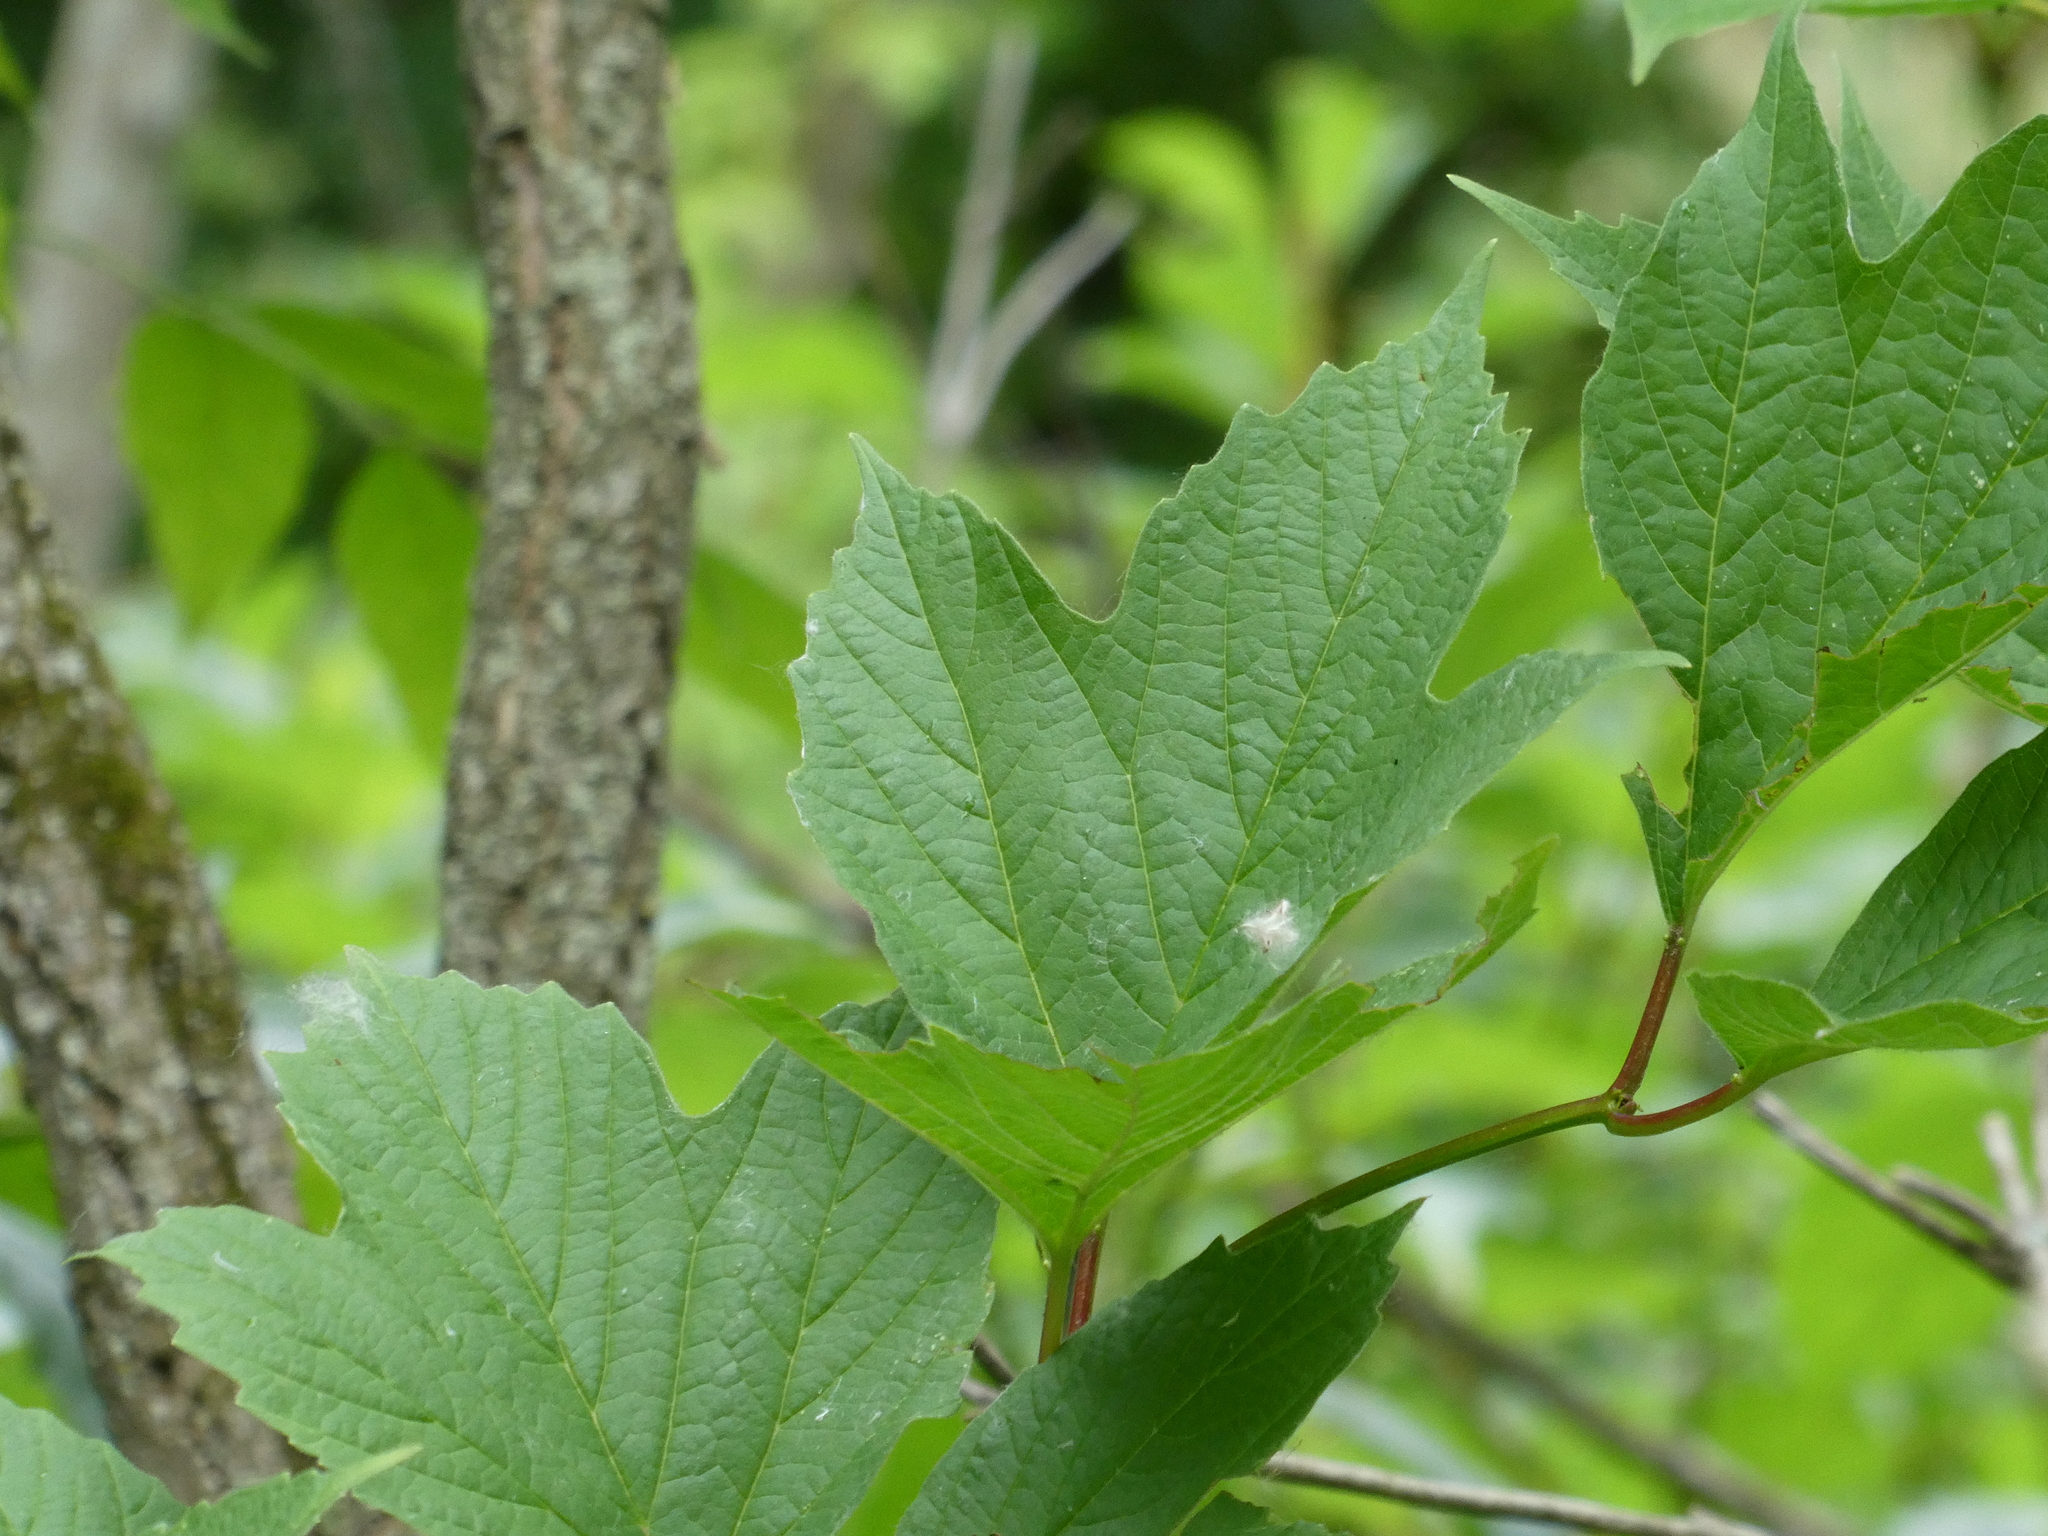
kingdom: Plantae
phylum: Tracheophyta
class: Magnoliopsida
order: Dipsacales
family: Viburnaceae
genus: Viburnum
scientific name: Viburnum opulus
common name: Guelder-rose
